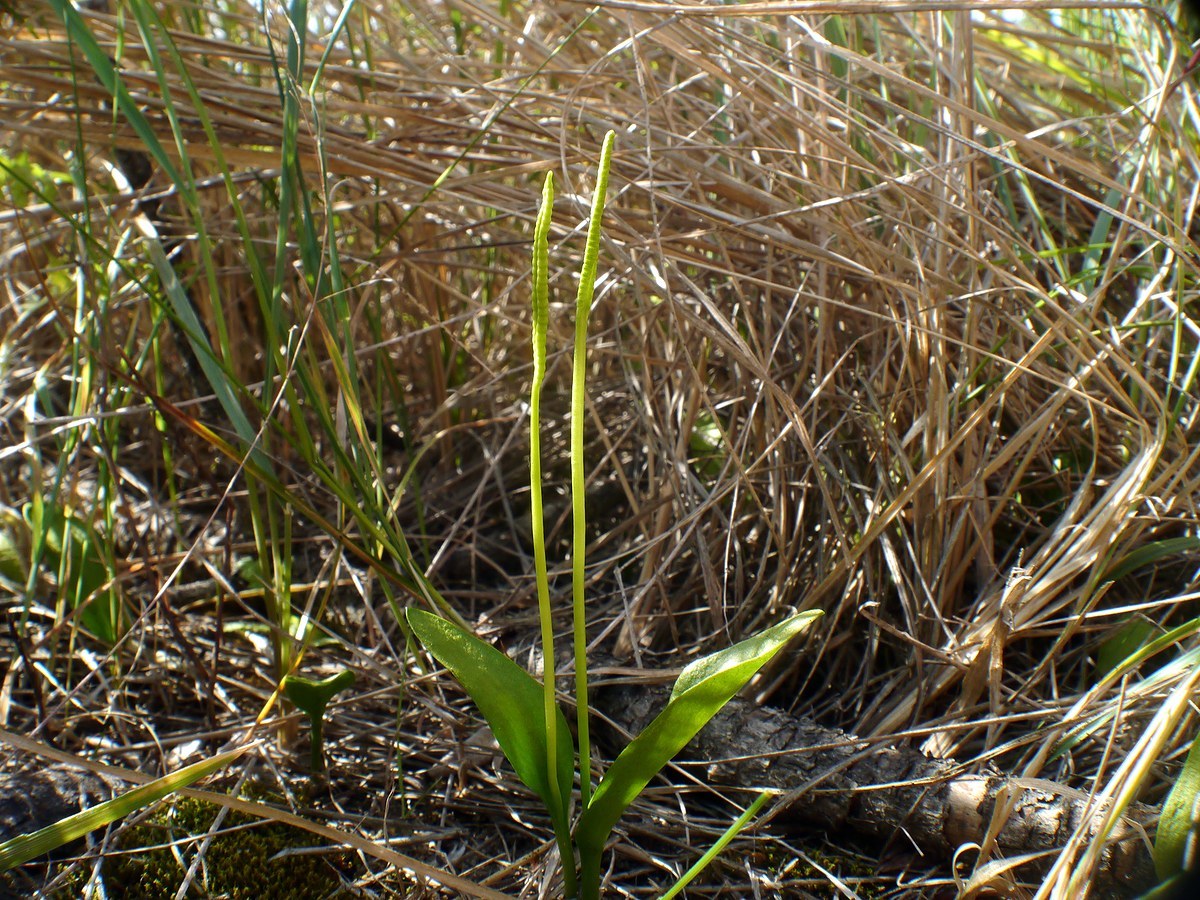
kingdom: Plantae
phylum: Tracheophyta
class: Polypodiopsida
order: Ophioglossales
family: Ophioglossaceae
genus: Ophioglossum
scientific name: Ophioglossum vulgatum
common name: Adder's-tongue
